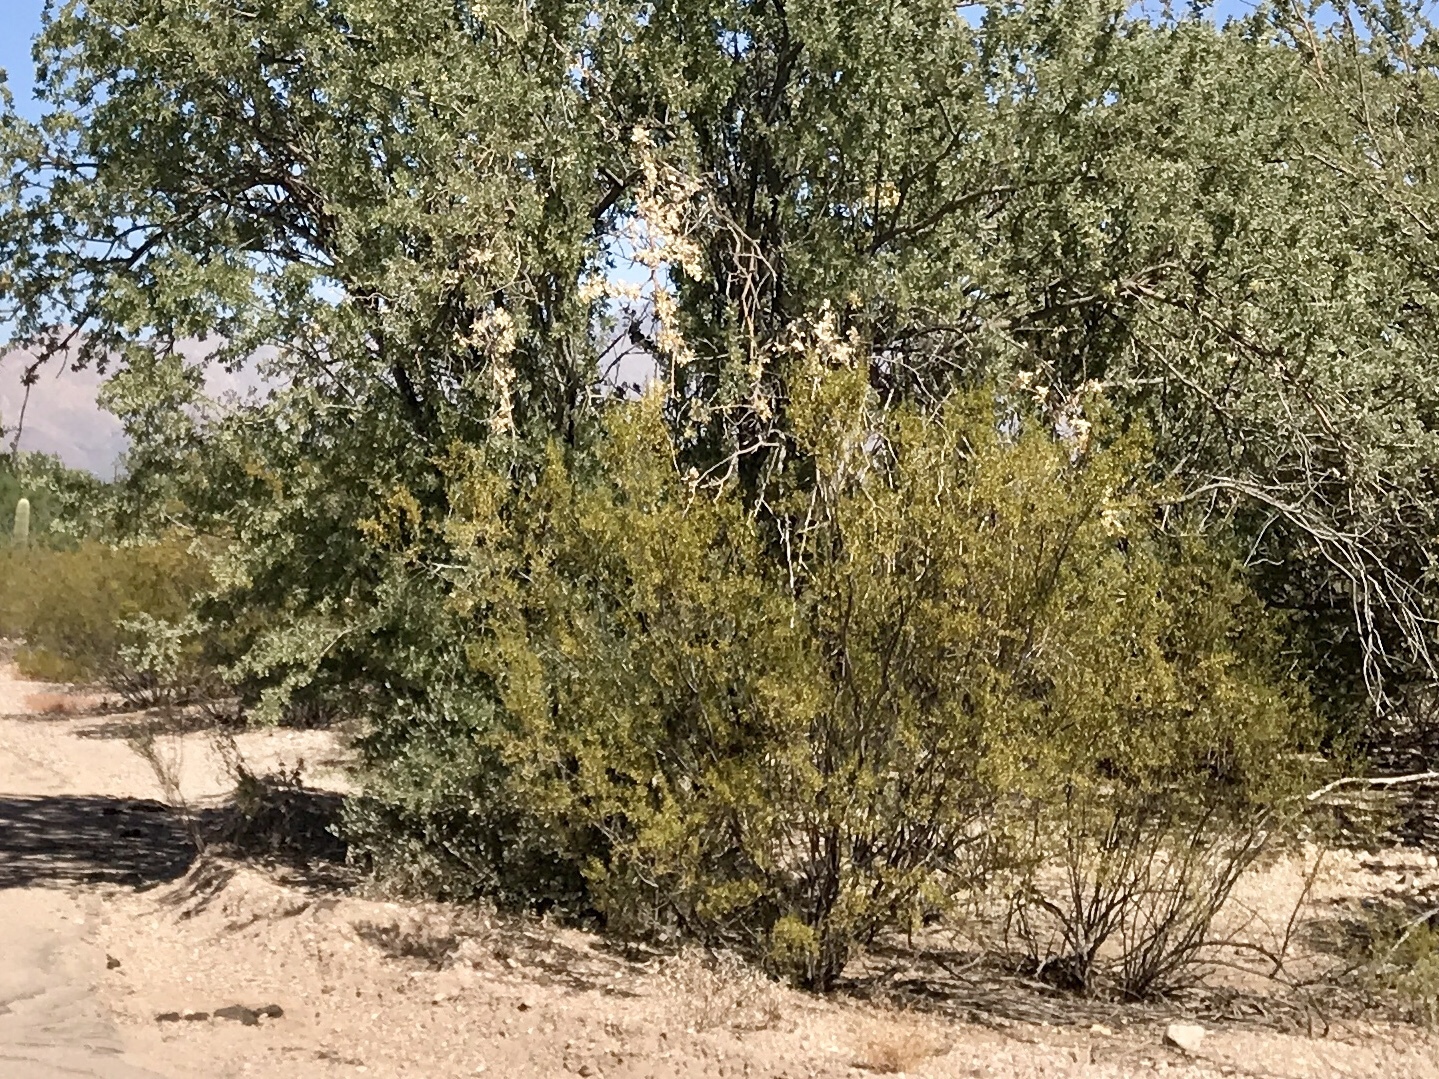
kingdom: Plantae
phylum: Tracheophyta
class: Magnoliopsida
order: Zygophyllales
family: Zygophyllaceae
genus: Larrea
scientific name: Larrea tridentata
